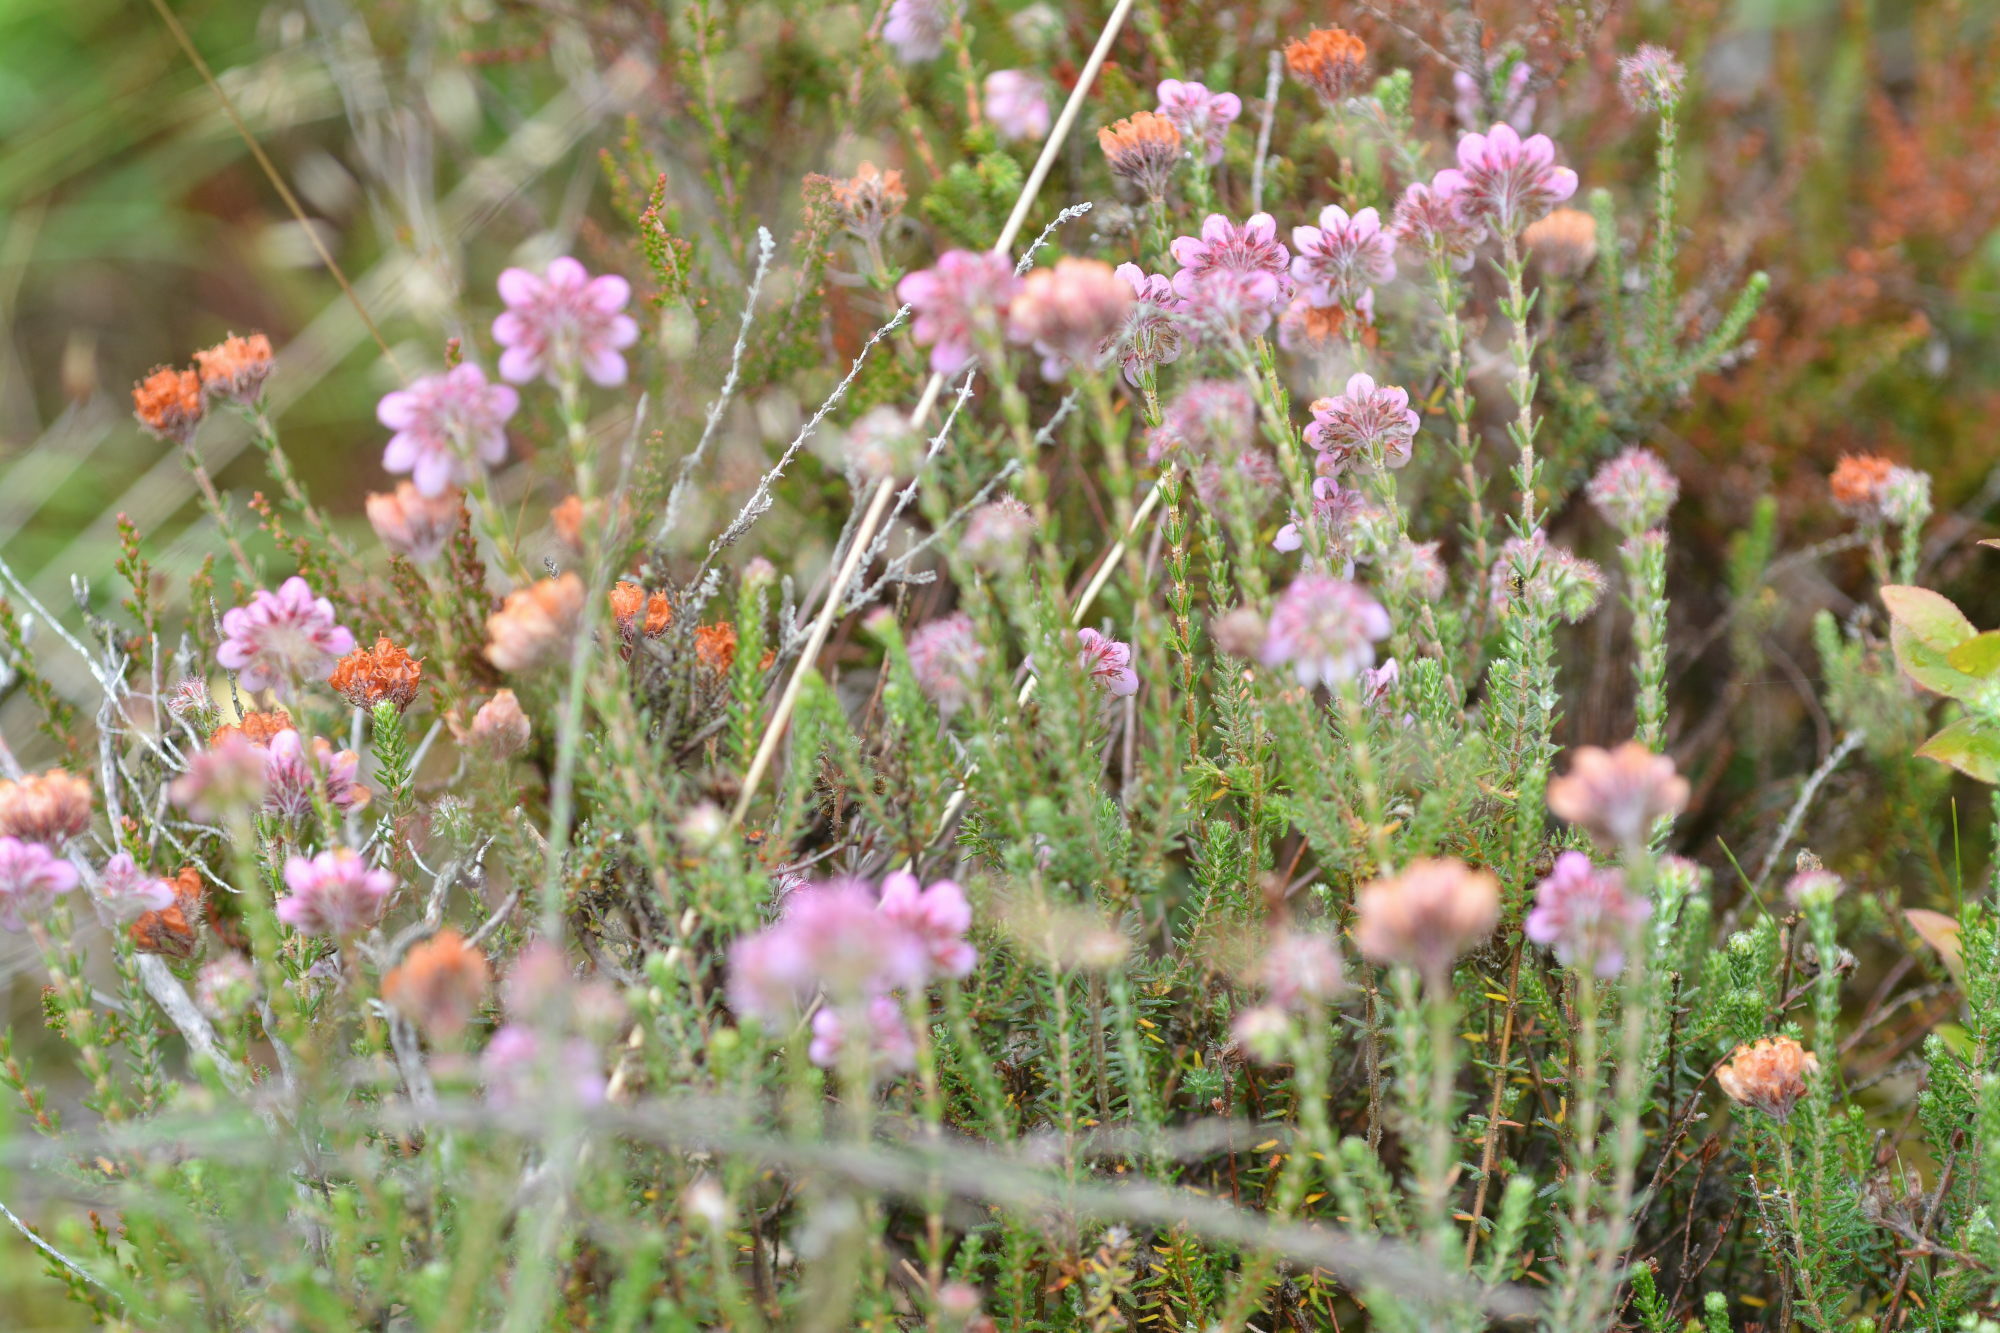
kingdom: Plantae
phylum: Tracheophyta
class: Magnoliopsida
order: Ericales
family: Ericaceae
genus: Erica
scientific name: Erica tetralix
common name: Cross-leaved heath
